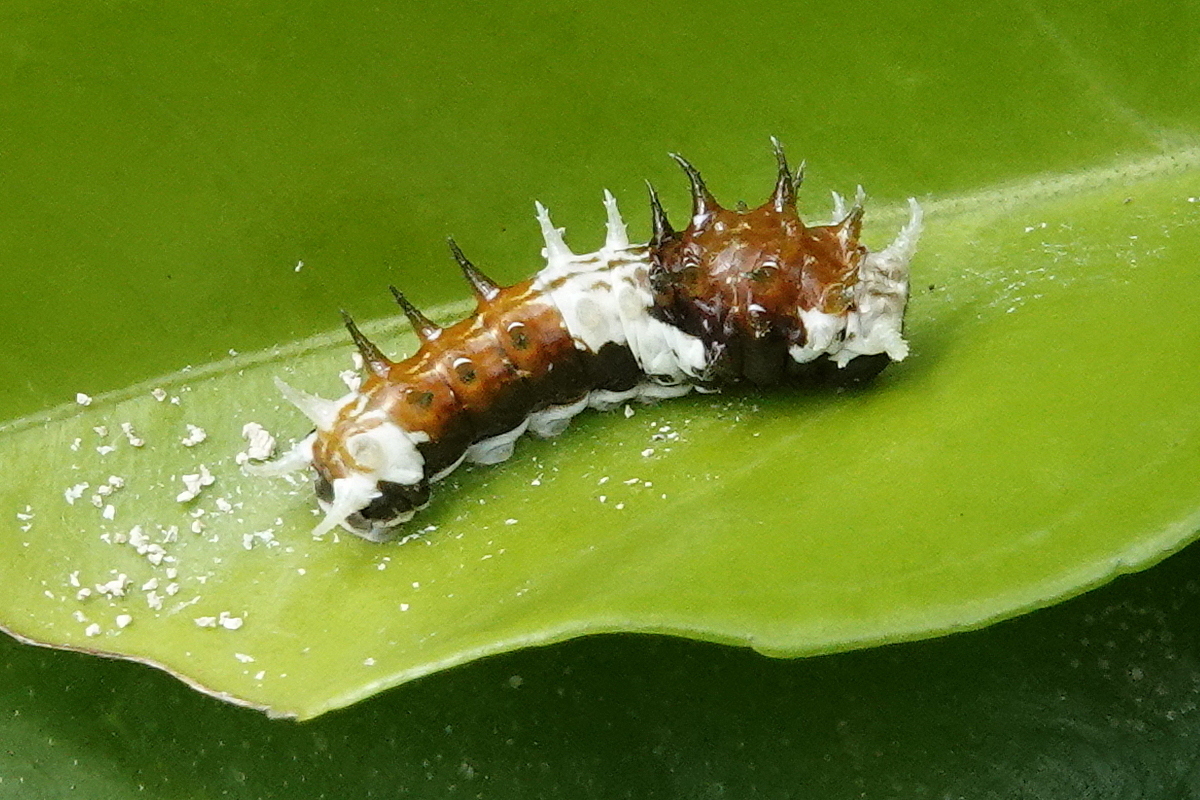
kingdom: Animalia
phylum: Arthropoda
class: Insecta
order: Lepidoptera
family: Papilionidae
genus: Papilio
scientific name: Papilio aegeus
